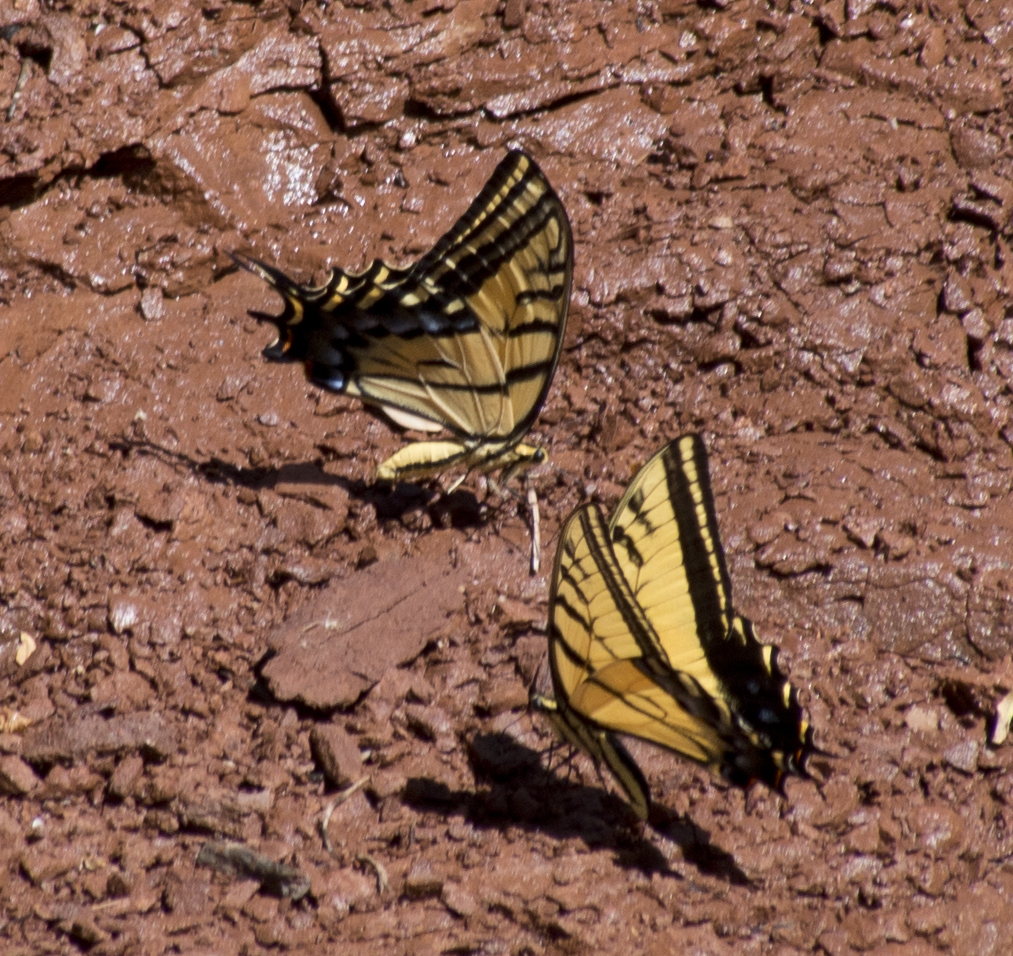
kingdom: Animalia
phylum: Arthropoda
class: Insecta
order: Lepidoptera
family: Papilionidae
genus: Papilio
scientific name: Papilio multicaudata
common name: Two-tailed tiger swallowtail
